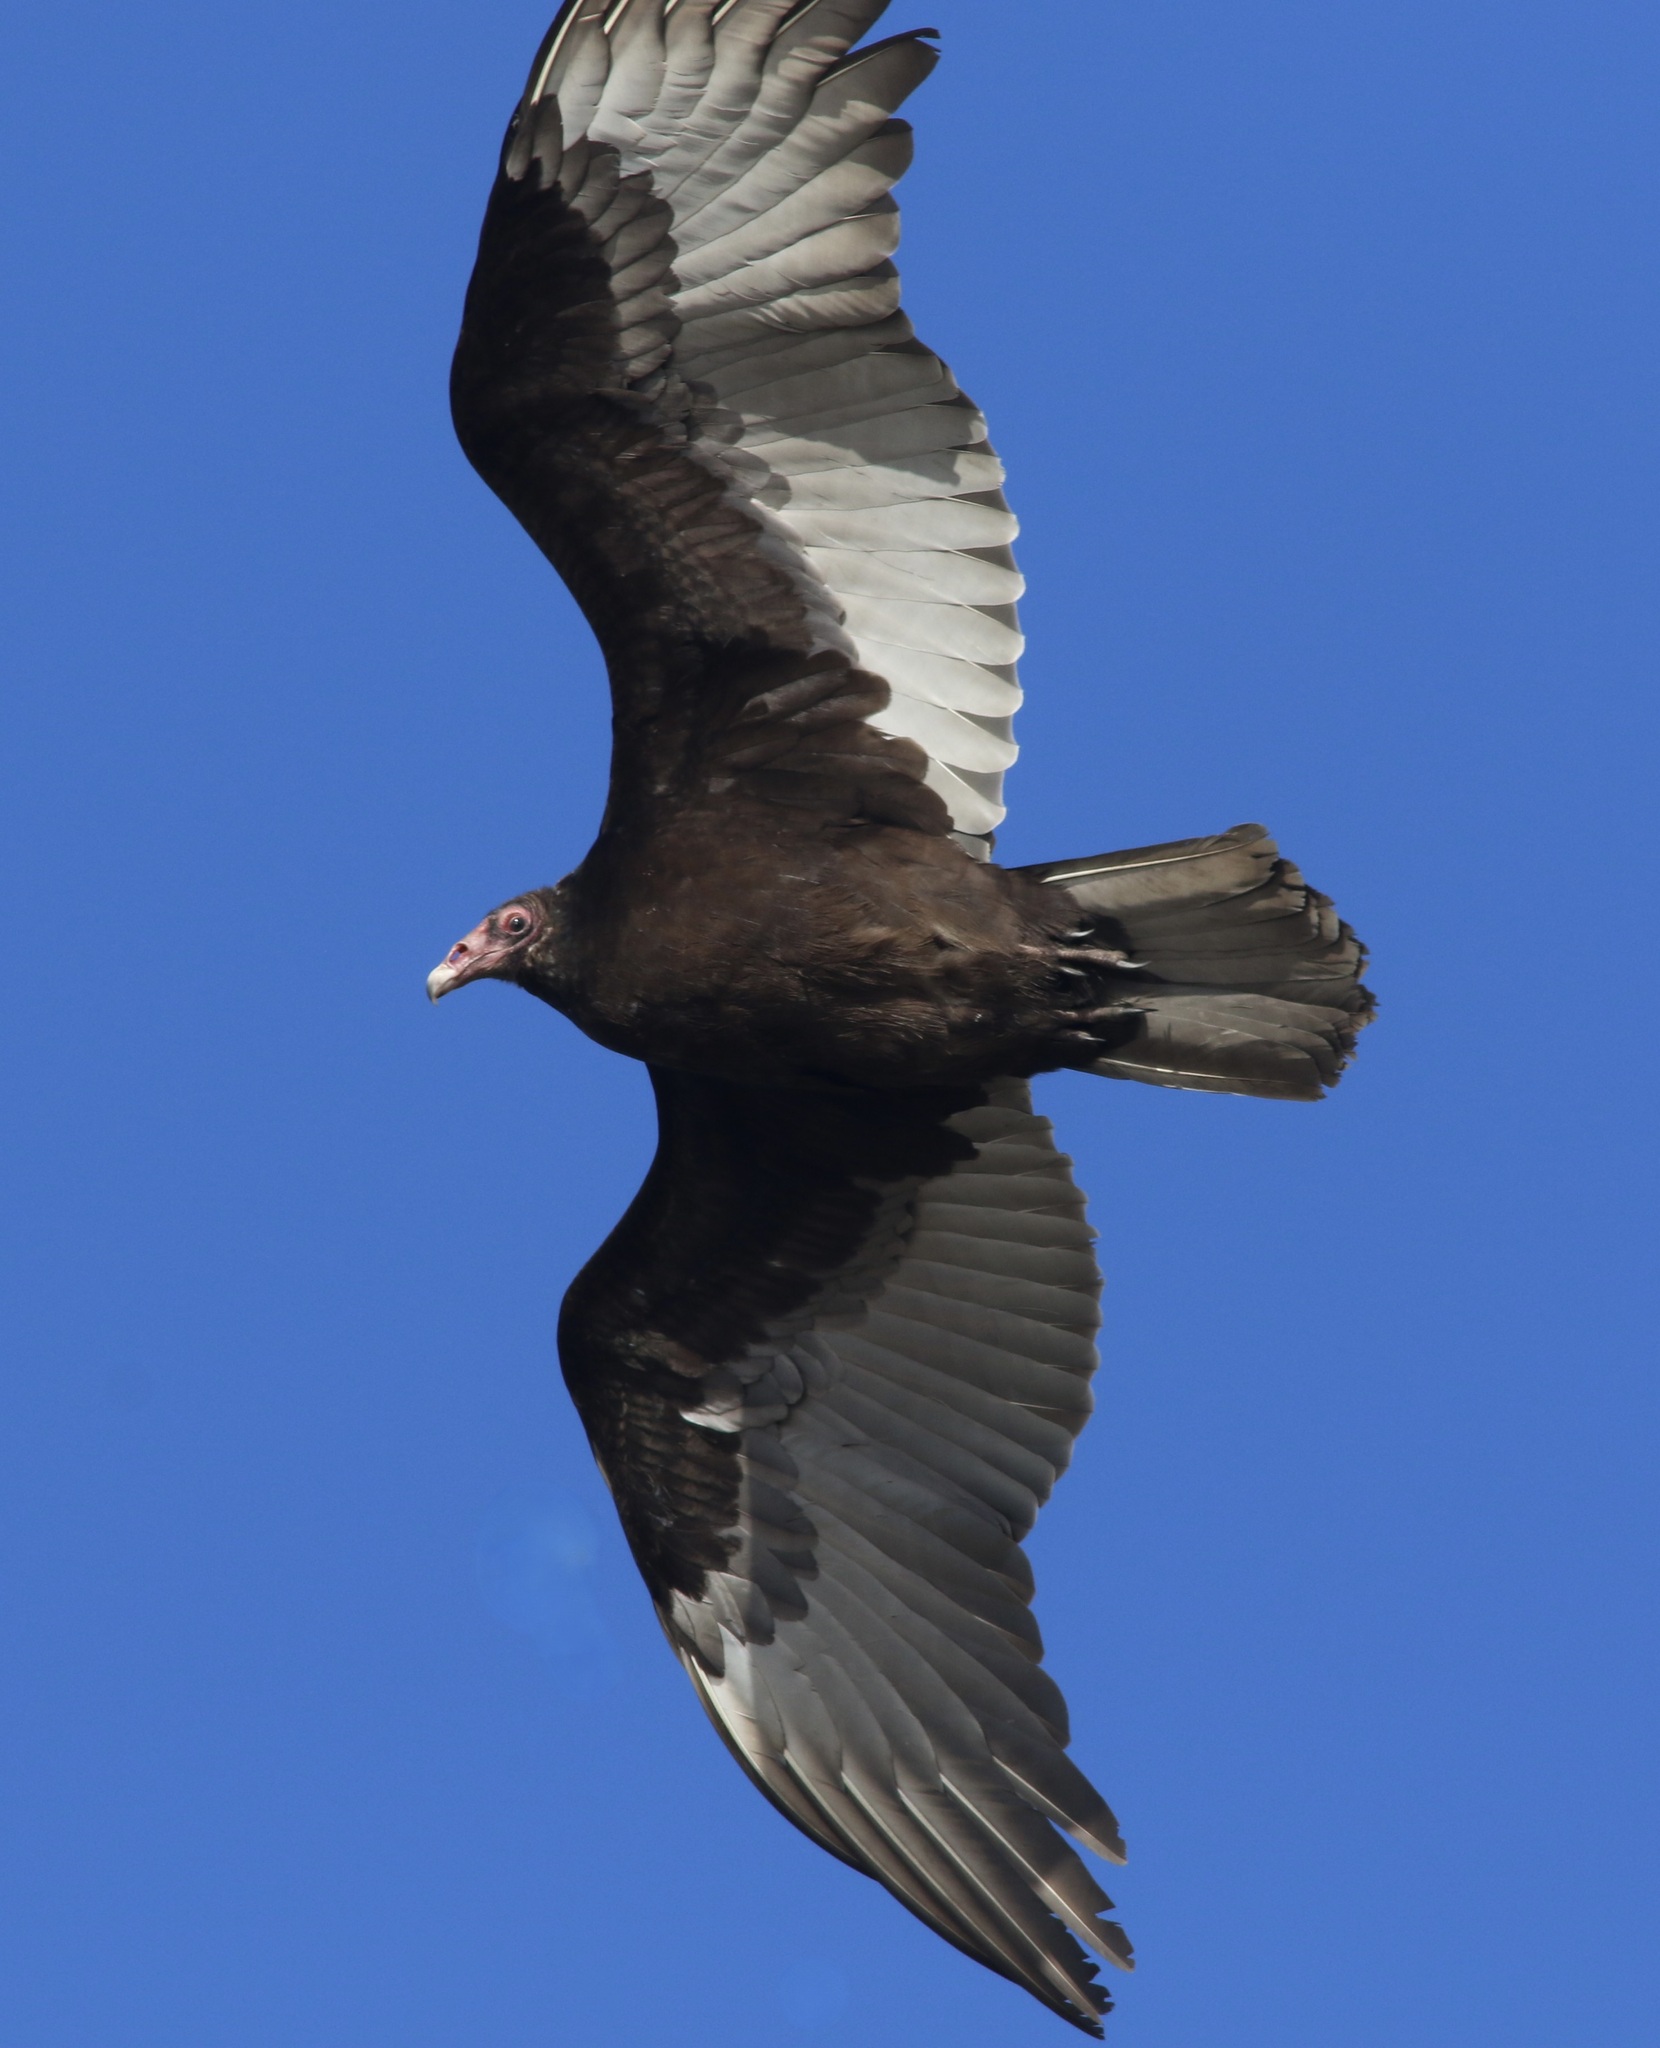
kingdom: Animalia
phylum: Chordata
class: Aves
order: Accipitriformes
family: Cathartidae
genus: Cathartes
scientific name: Cathartes aura
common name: Turkey vulture
